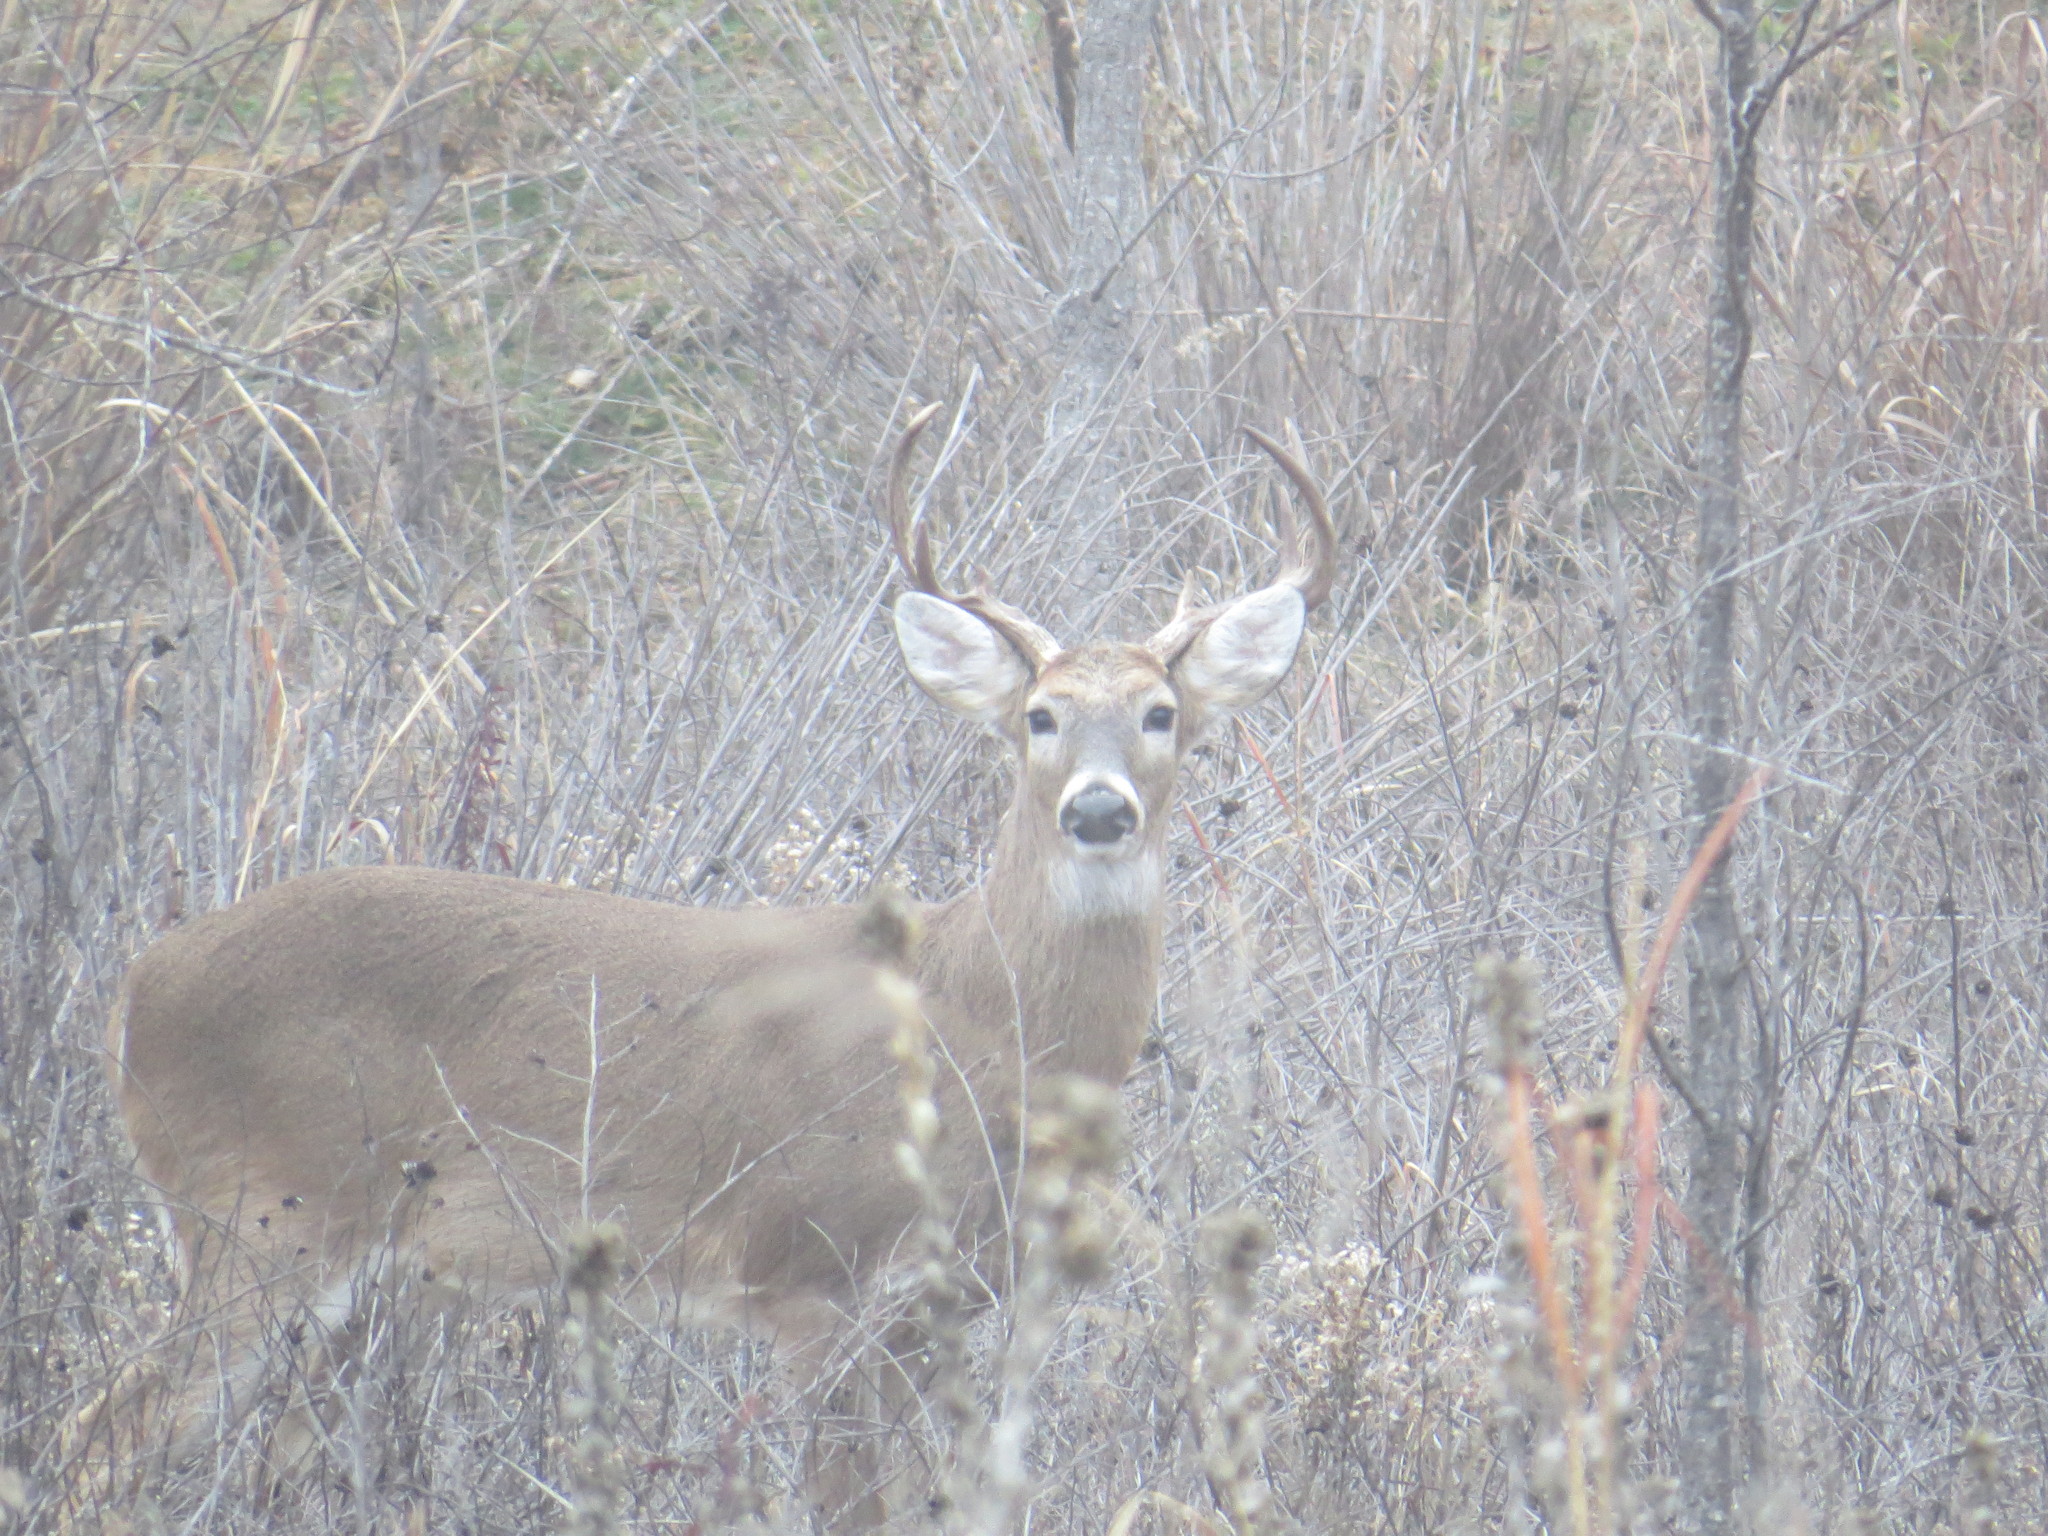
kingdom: Animalia
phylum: Chordata
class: Mammalia
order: Artiodactyla
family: Cervidae
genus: Odocoileus
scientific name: Odocoileus virginianus
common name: White-tailed deer
